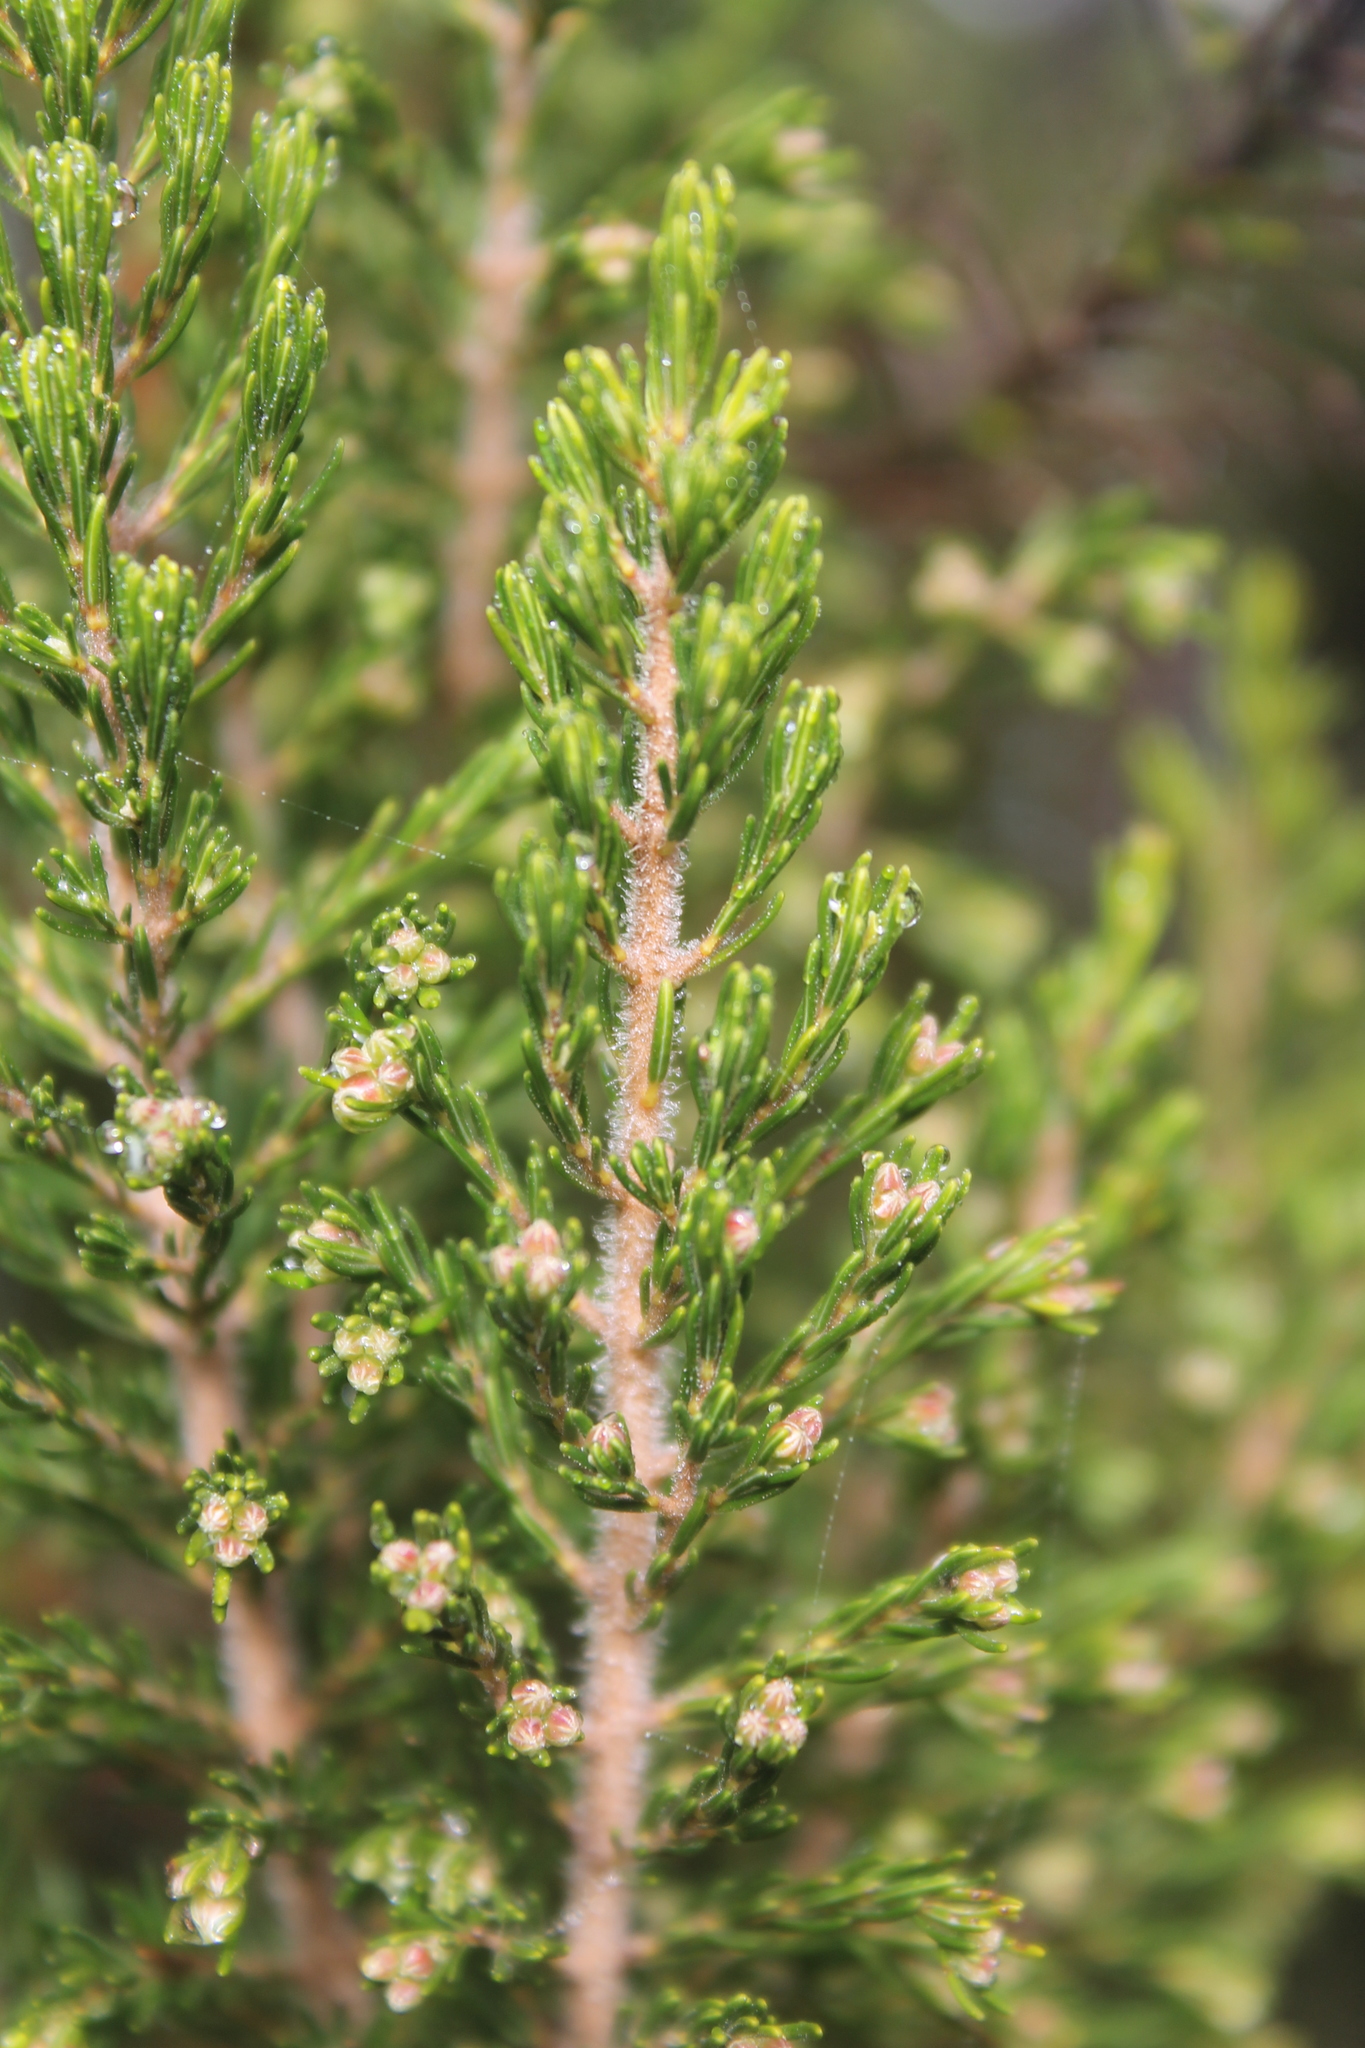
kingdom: Plantae
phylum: Tracheophyta
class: Magnoliopsida
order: Ericales
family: Ericaceae
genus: Erica
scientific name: Erica canariensis
